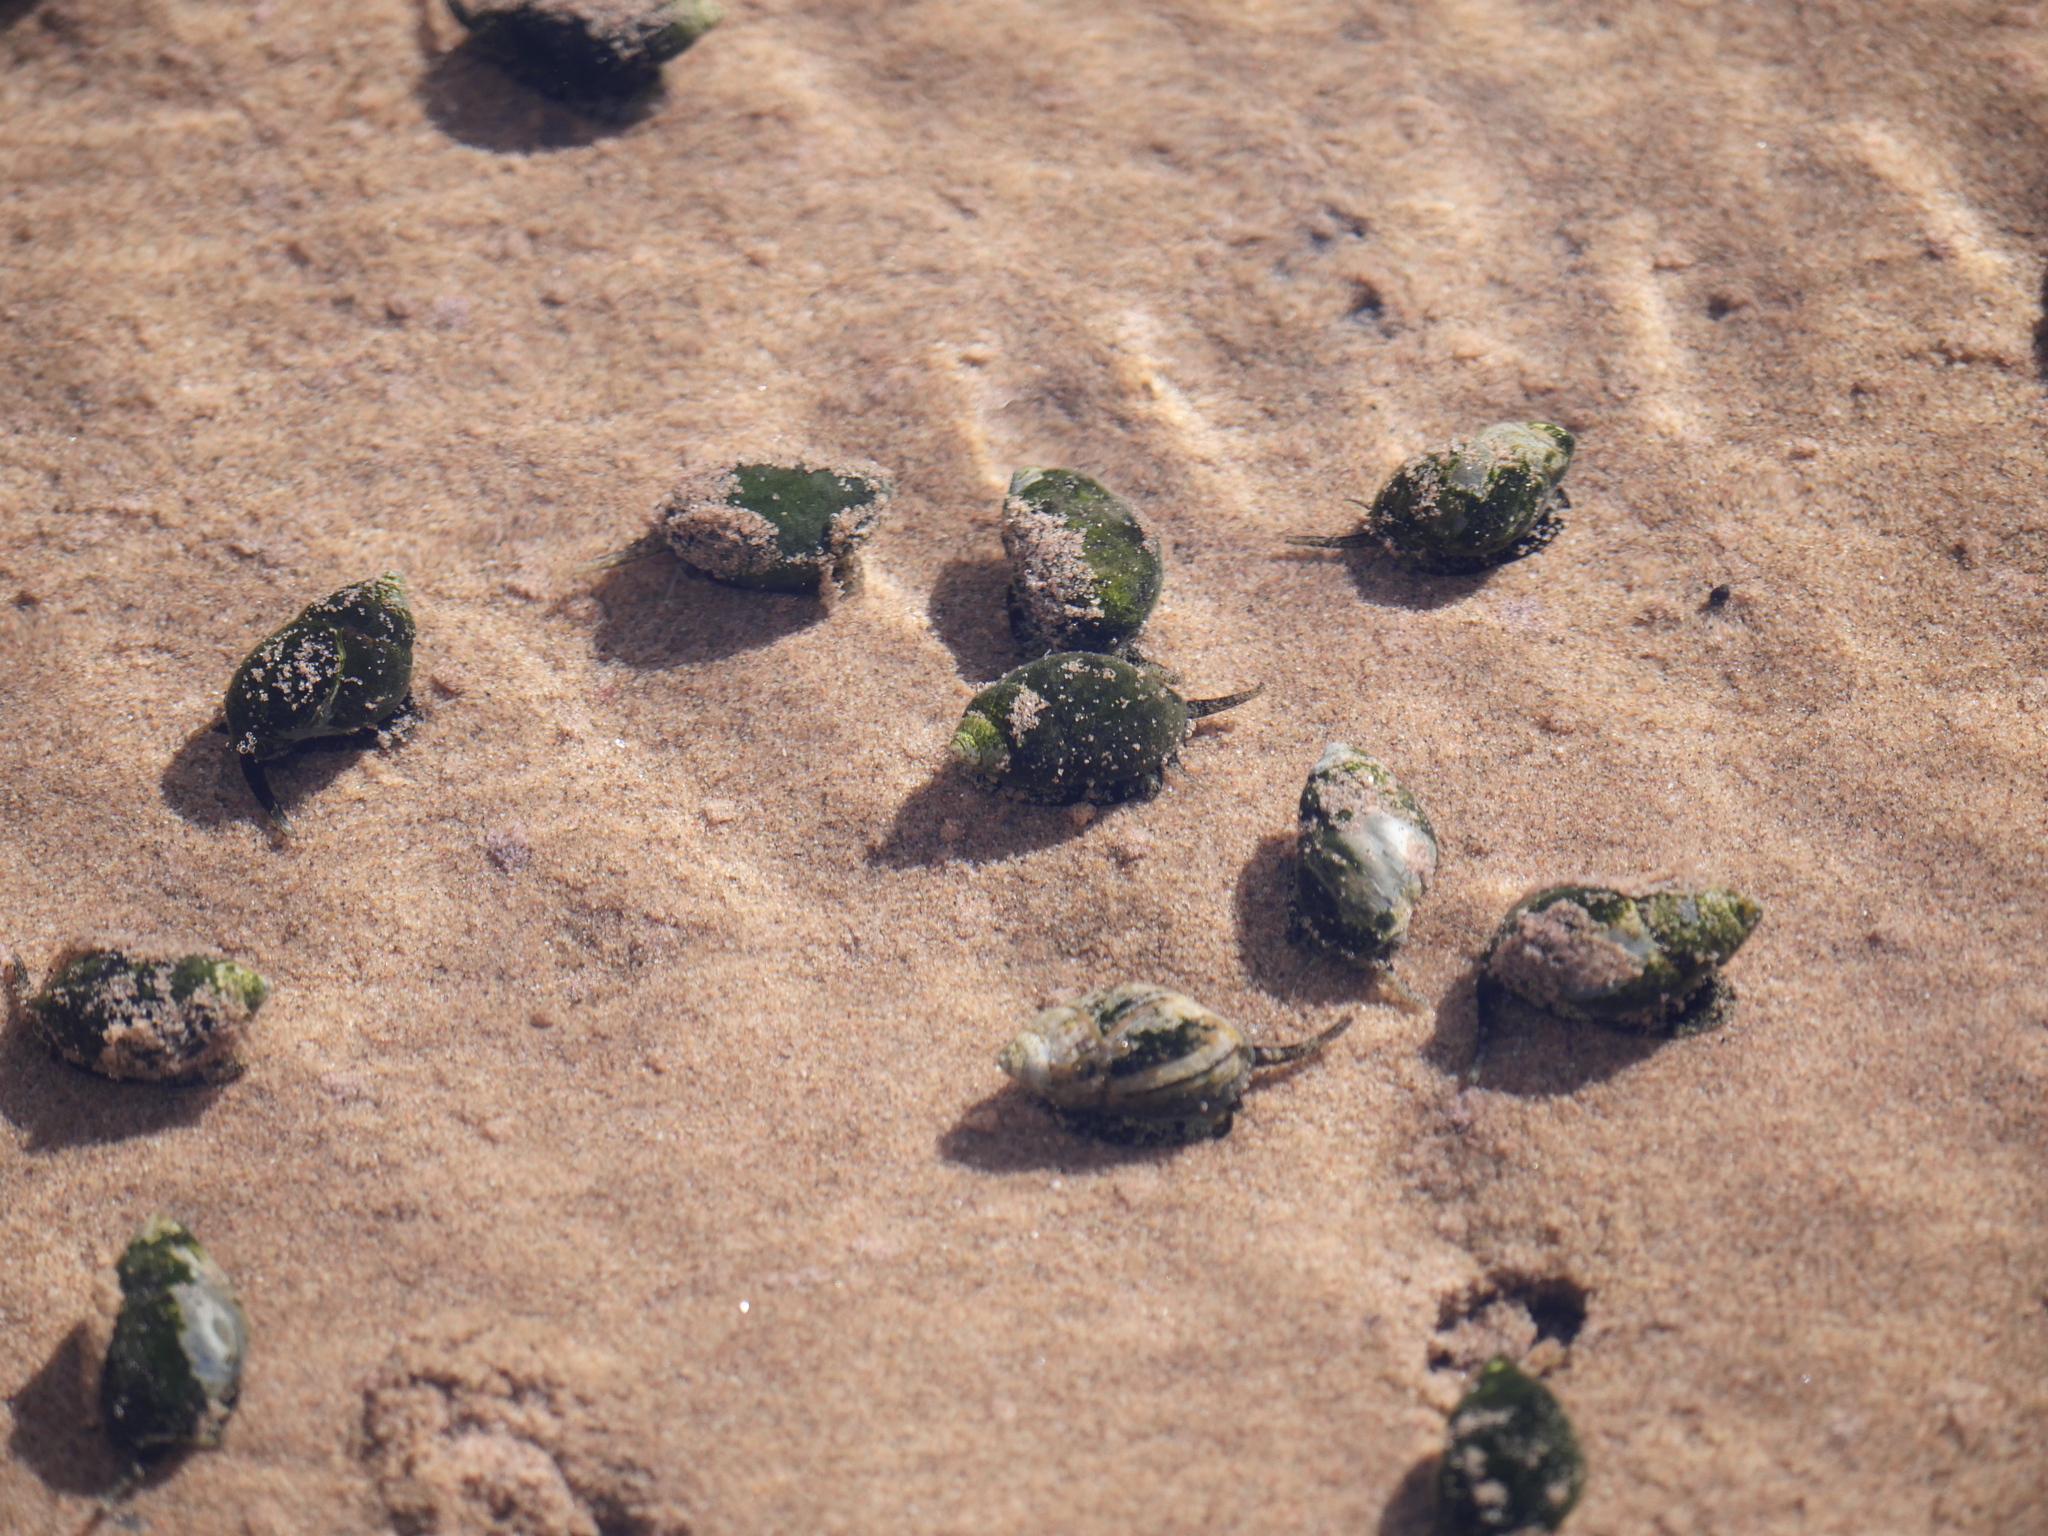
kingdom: Animalia
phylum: Mollusca
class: Gastropoda
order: Neogastropoda
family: Nassariidae
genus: Ilyanassa
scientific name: Ilyanassa obsoleta
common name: Eastern mudsnail
